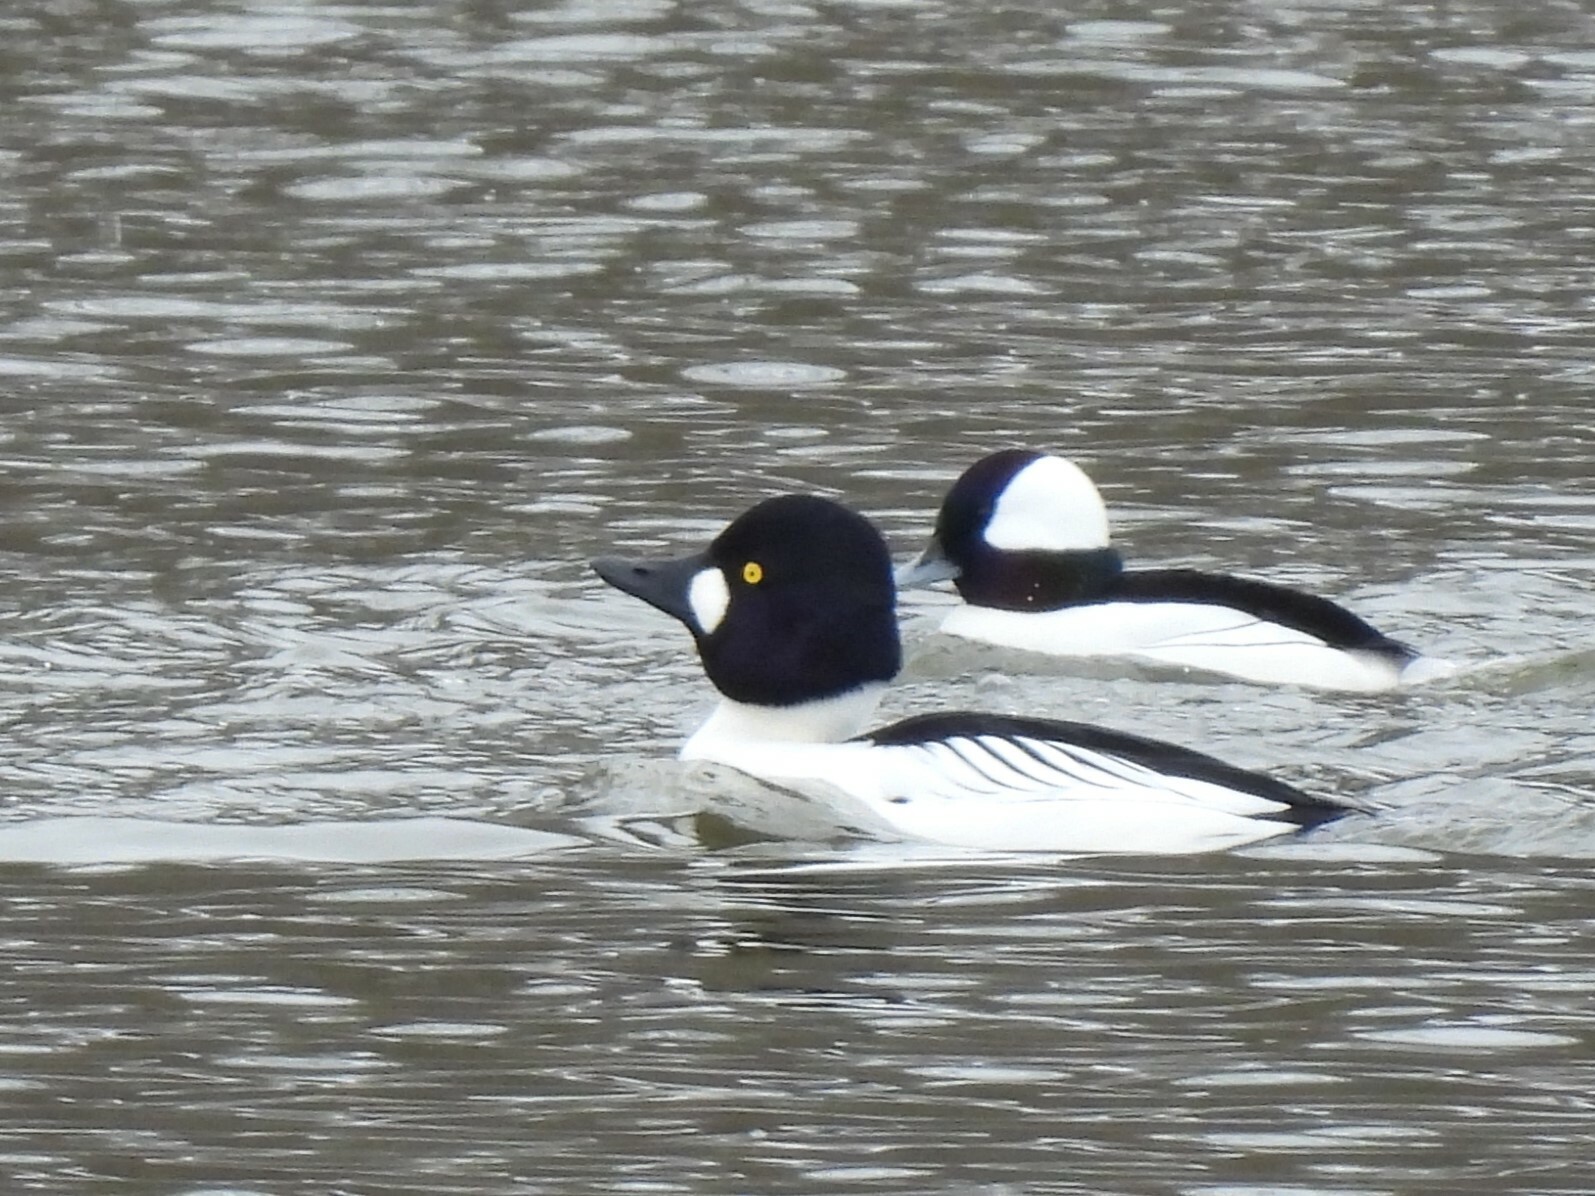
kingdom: Animalia
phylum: Chordata
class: Aves
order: Anseriformes
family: Anatidae
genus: Bucephala
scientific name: Bucephala clangula
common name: Common goldeneye
